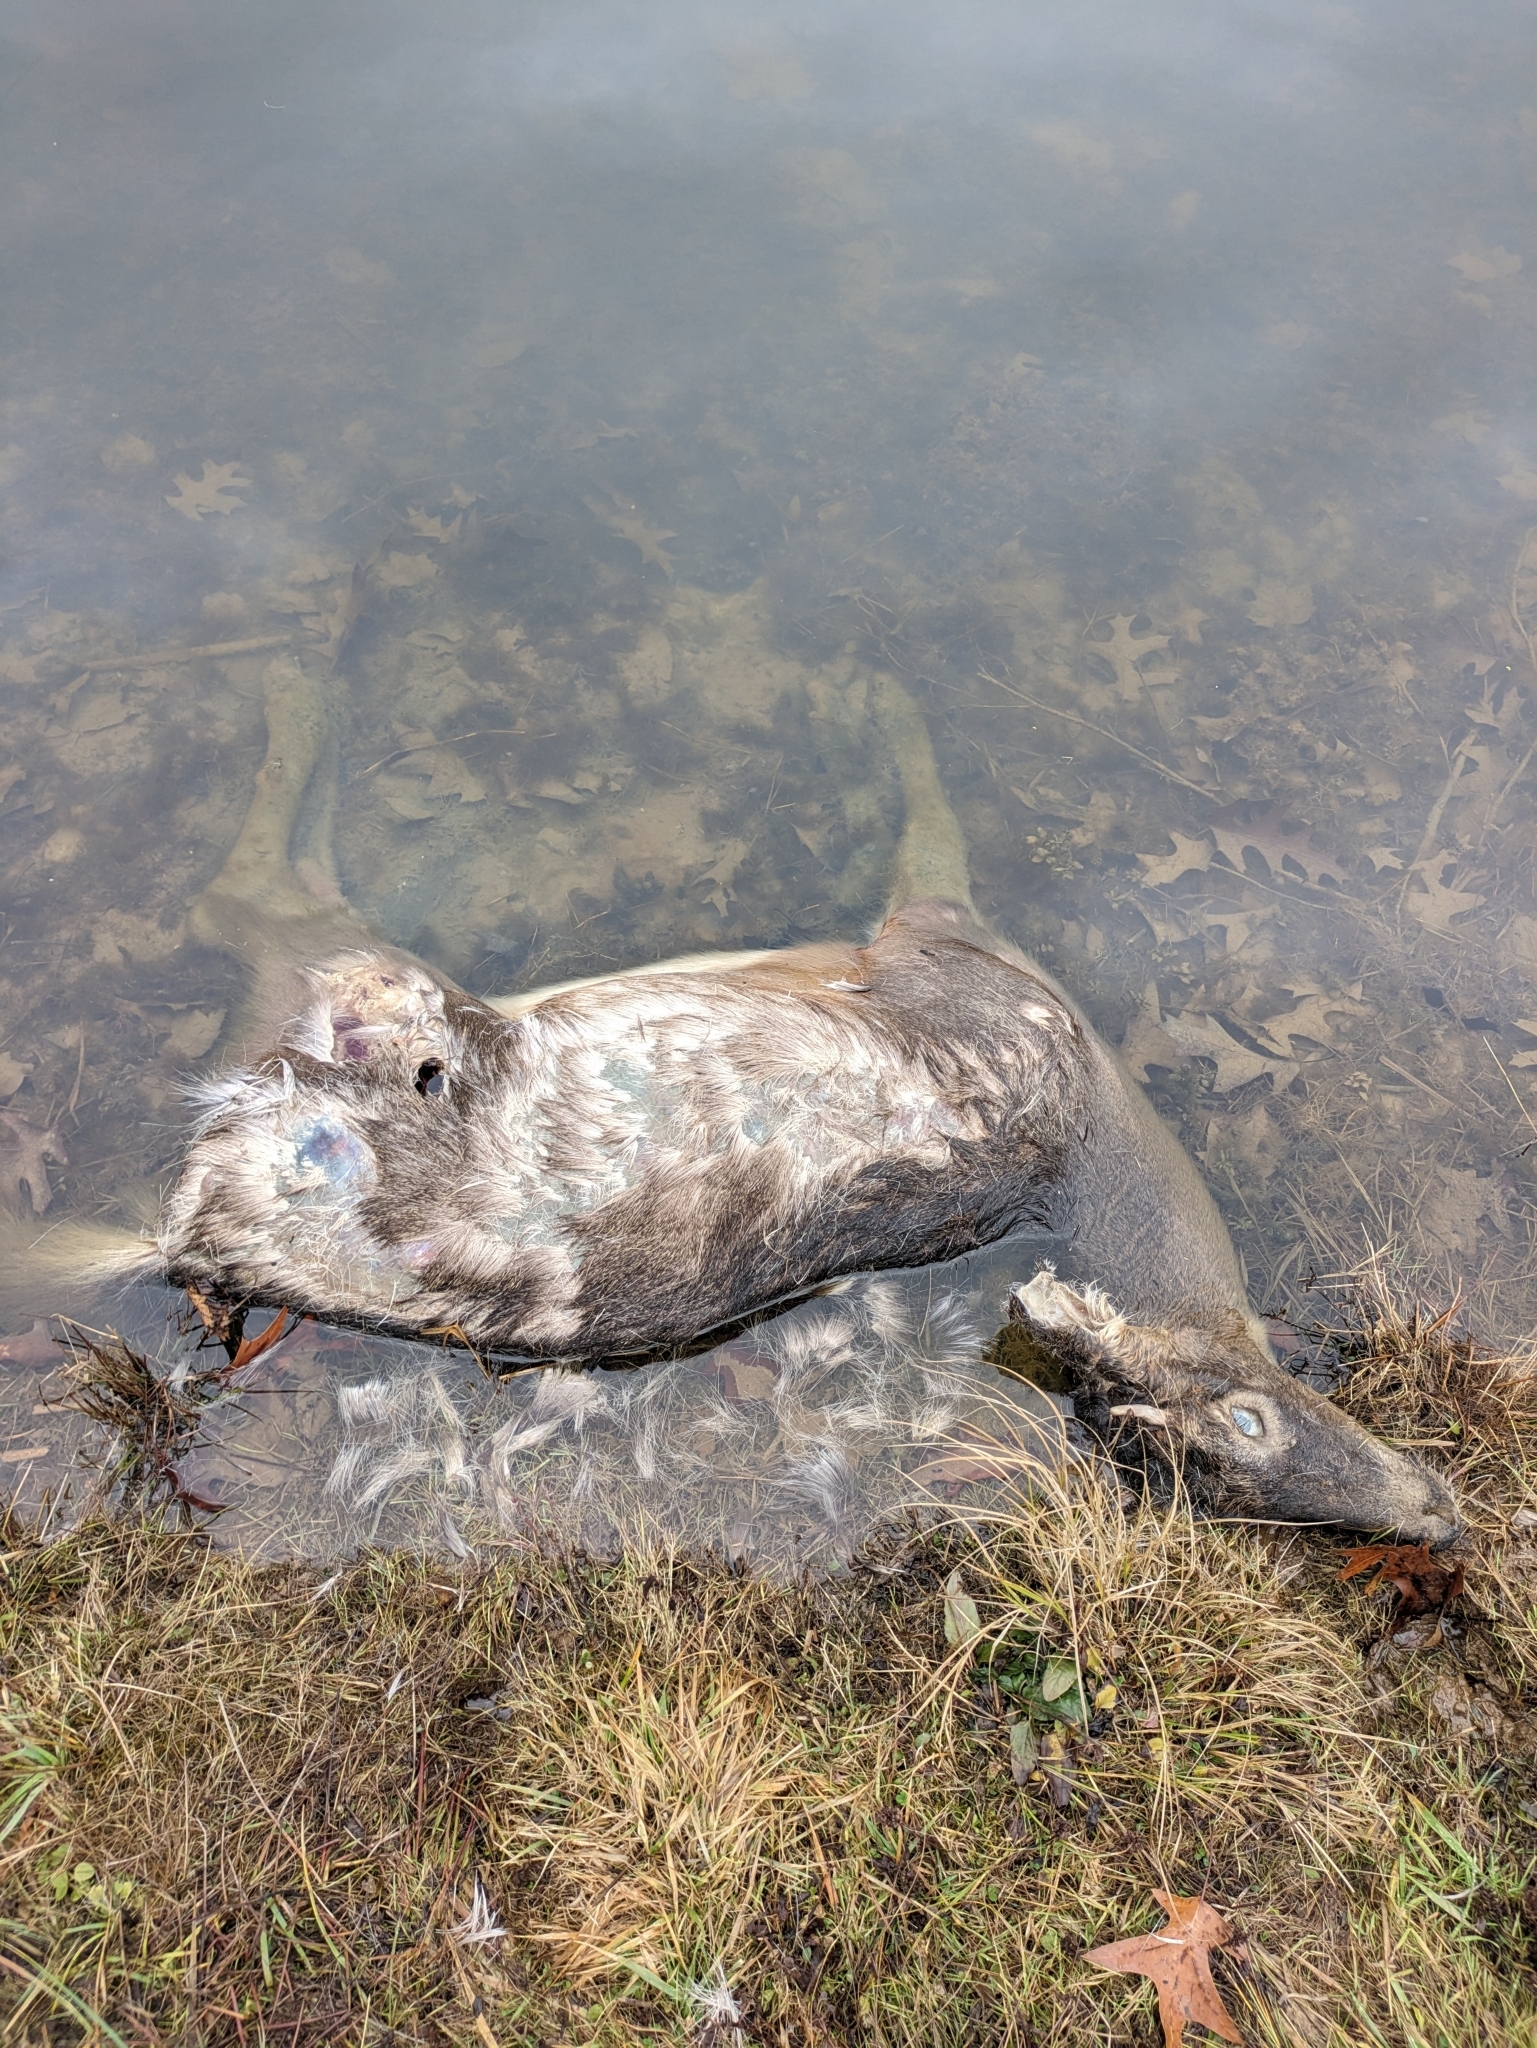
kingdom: Animalia
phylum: Chordata
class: Mammalia
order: Artiodactyla
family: Cervidae
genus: Odocoileus
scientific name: Odocoileus virginianus
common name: White-tailed deer
